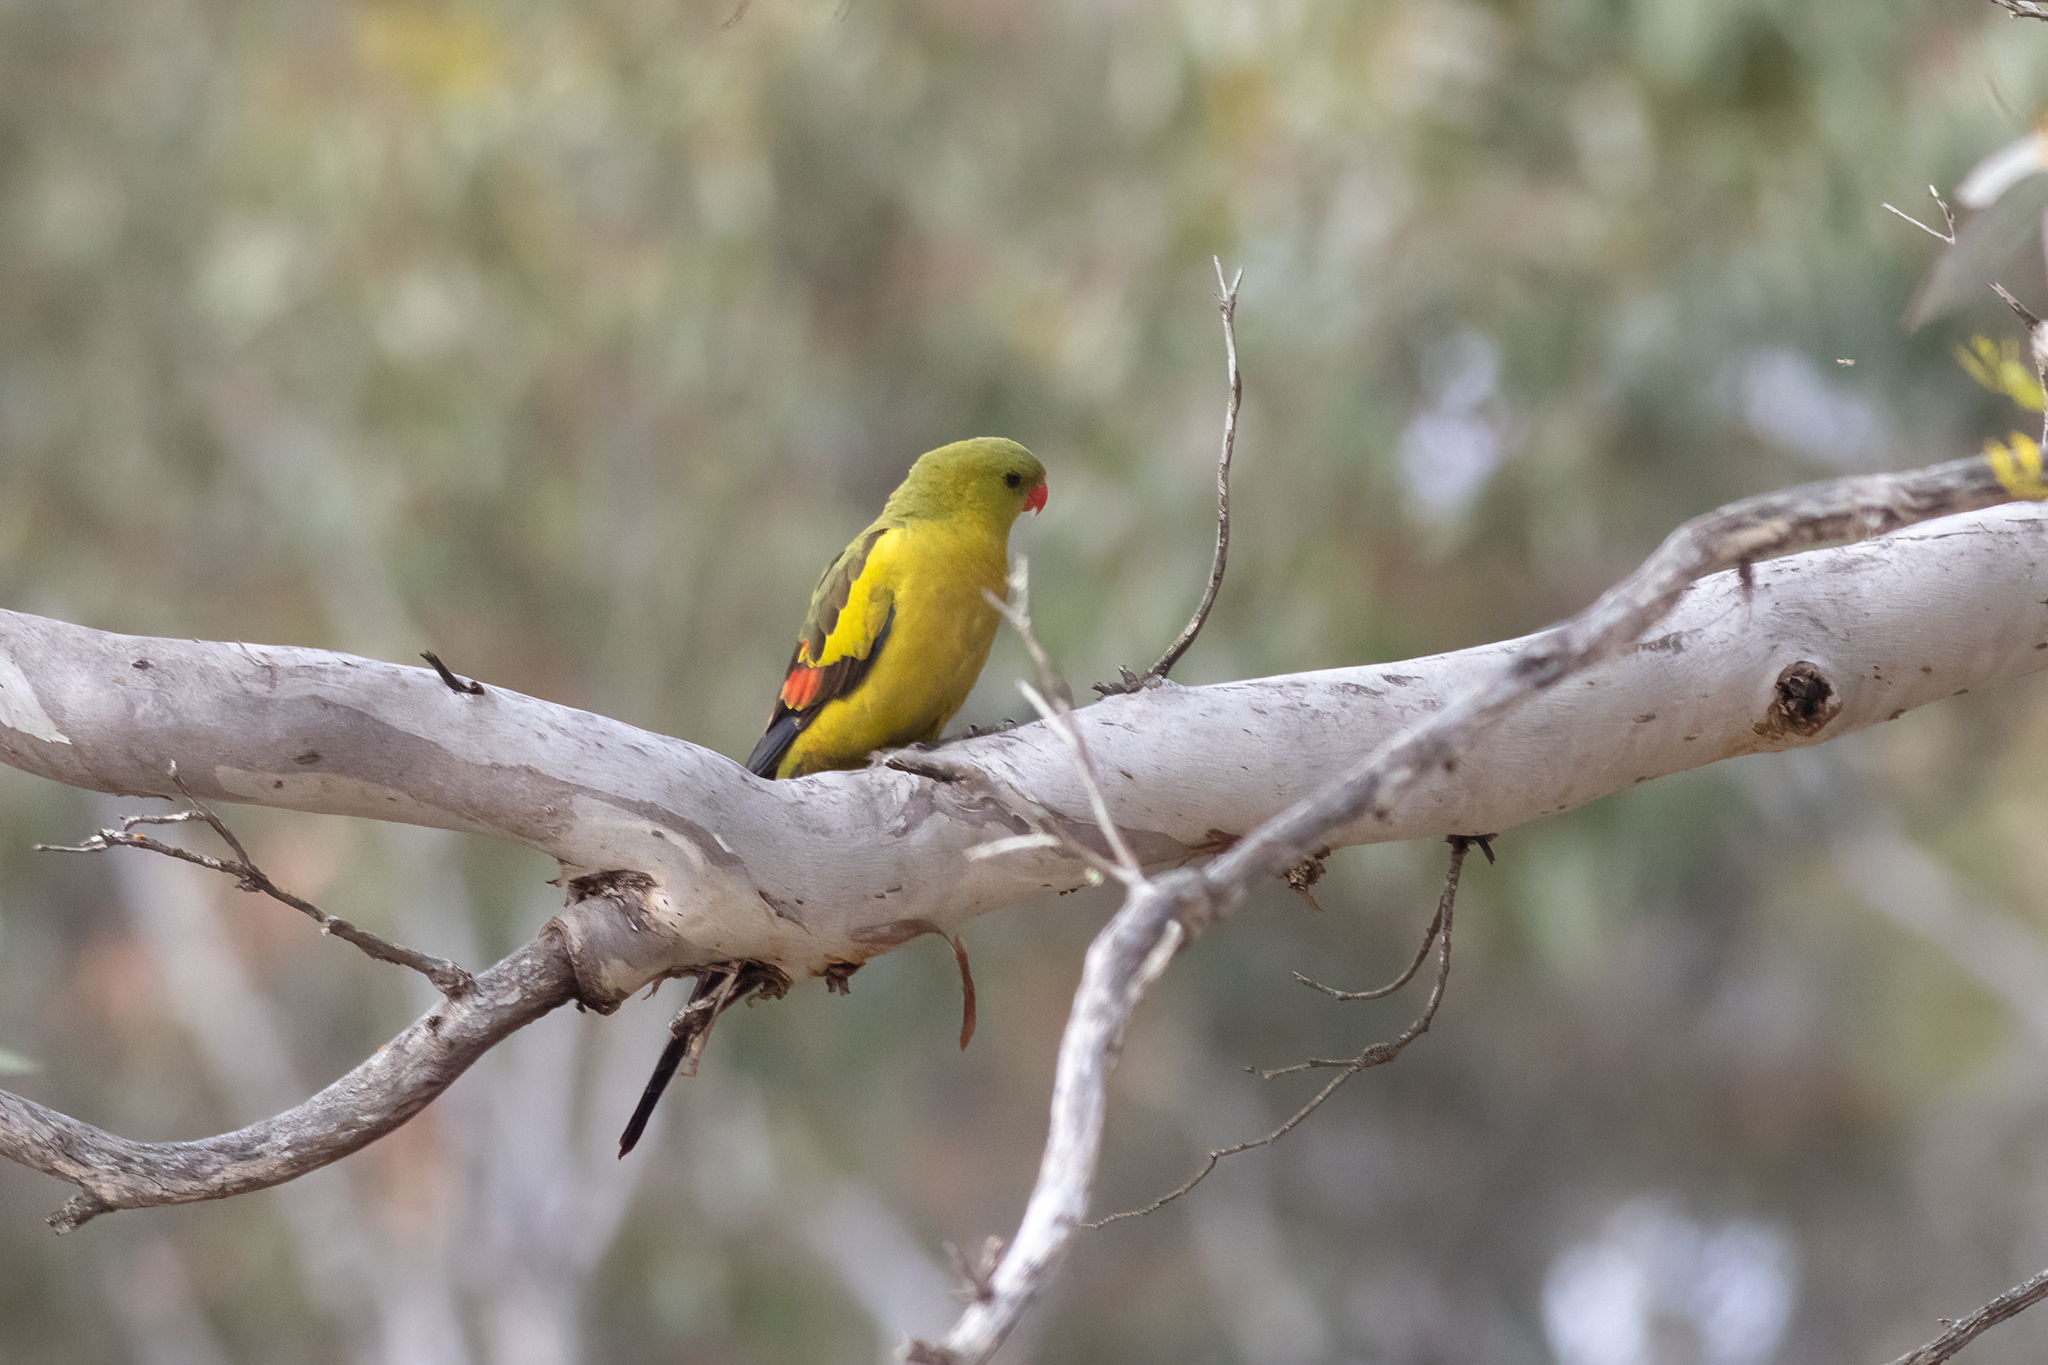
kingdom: Animalia
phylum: Chordata
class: Aves
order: Psittaciformes
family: Psittacidae
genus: Polytelis
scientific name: Polytelis anthopeplus
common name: Regent parrot
